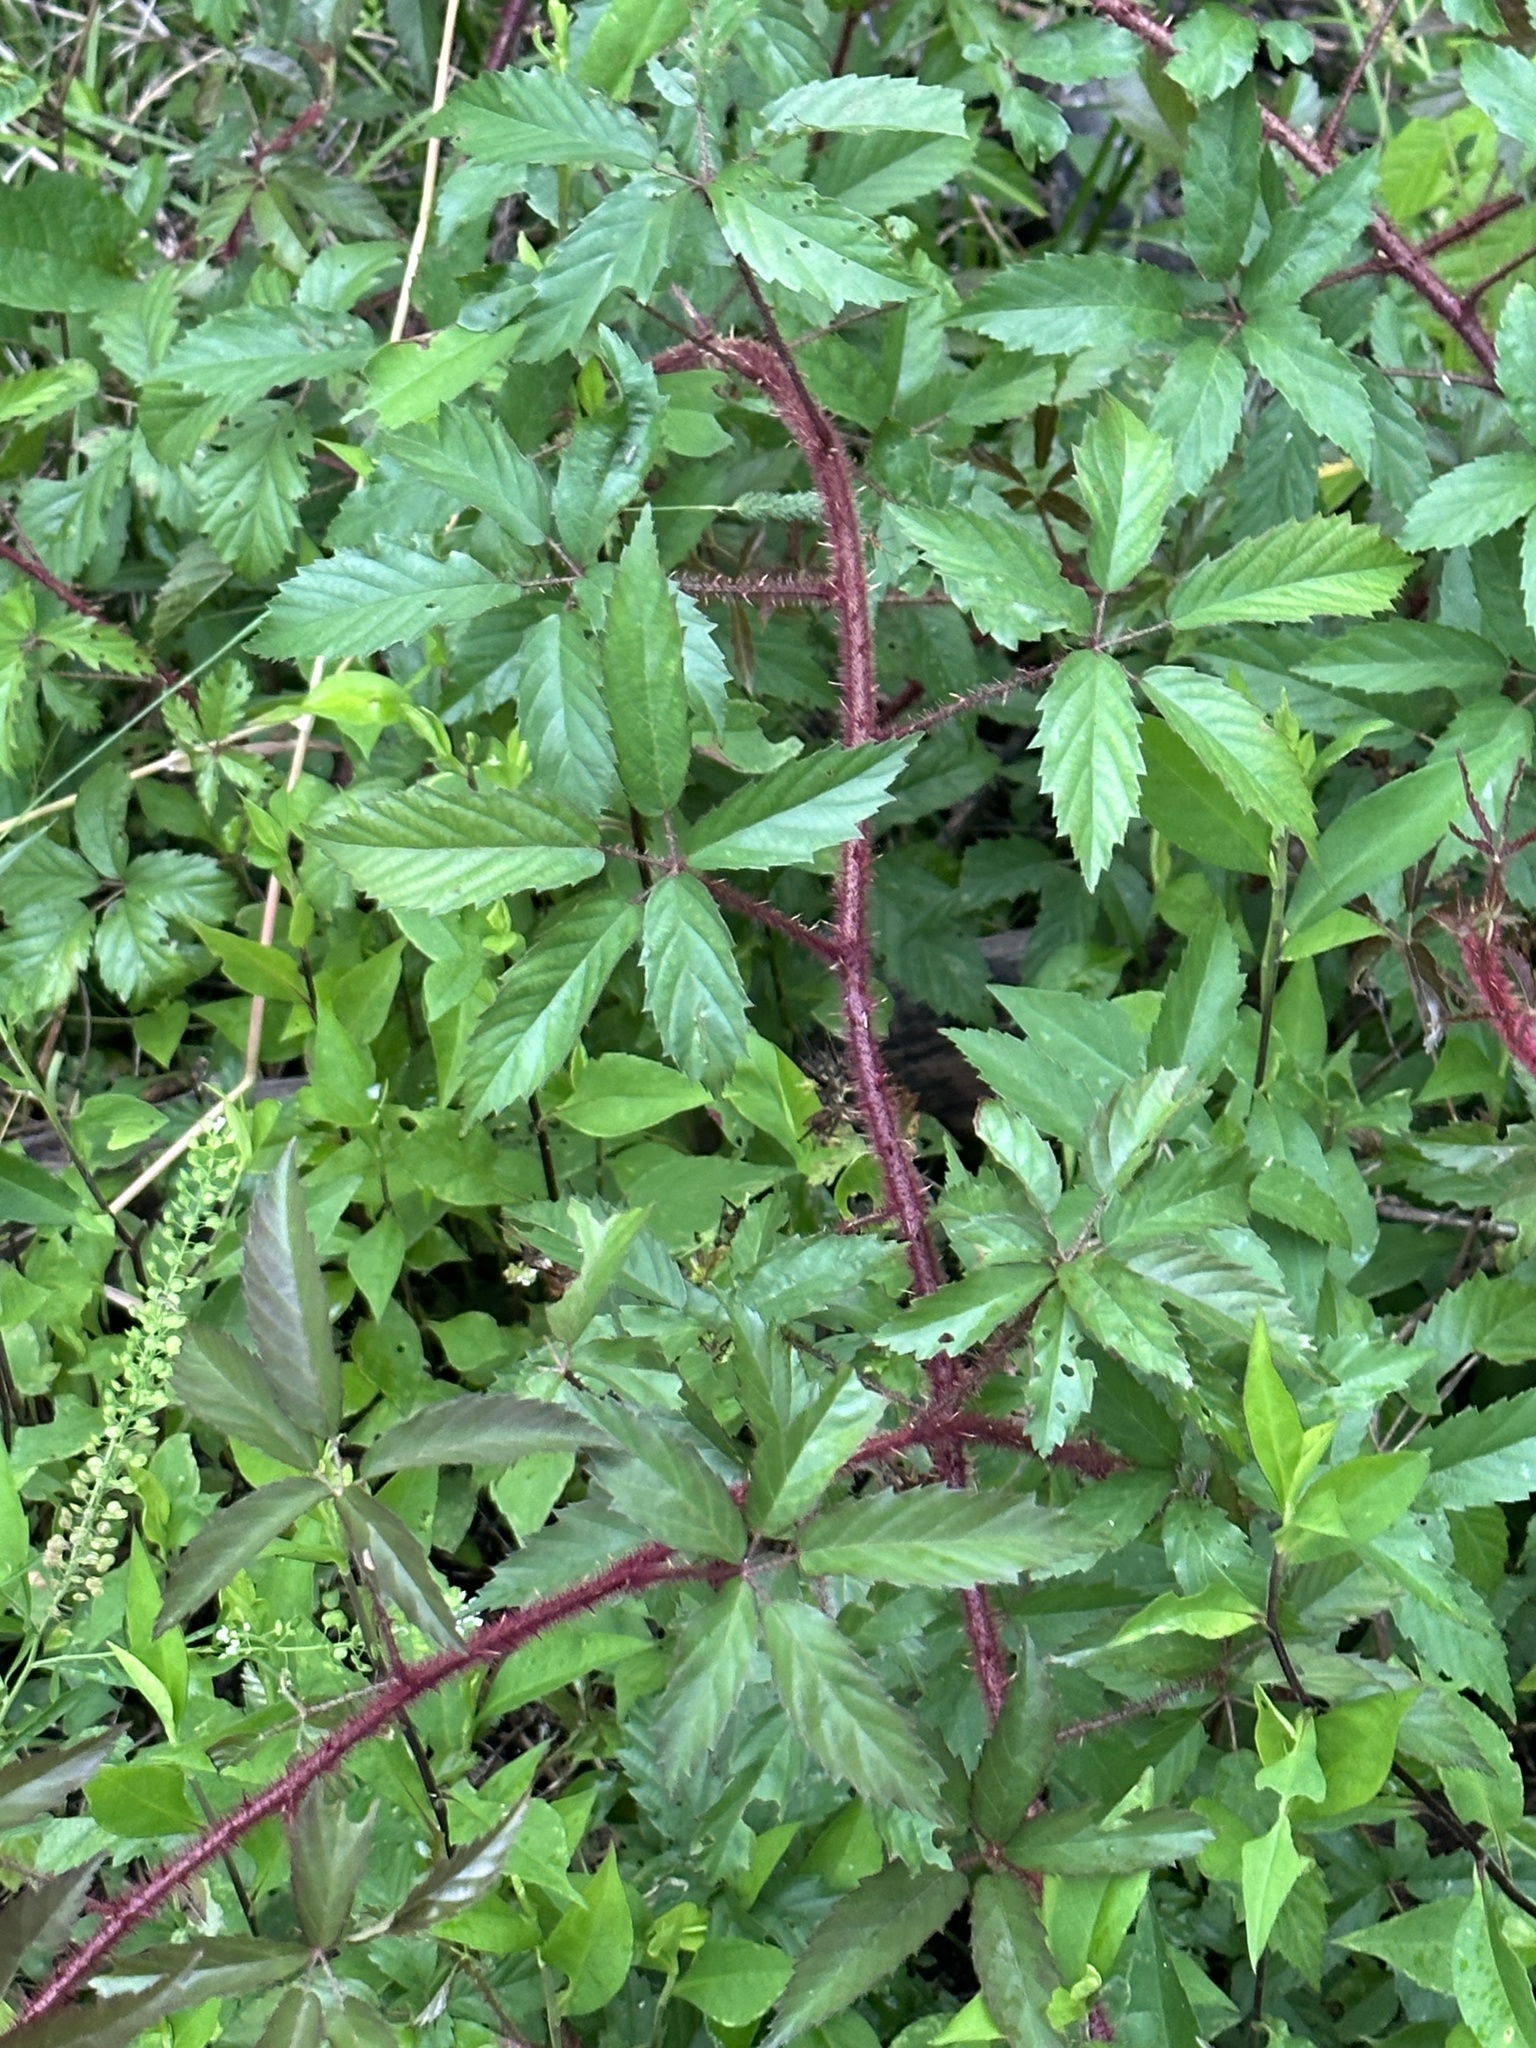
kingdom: Plantae
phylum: Tracheophyta
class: Magnoliopsida
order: Rosales
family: Rosaceae
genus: Rubus
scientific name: Rubus trivialis
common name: Southern dewberry
